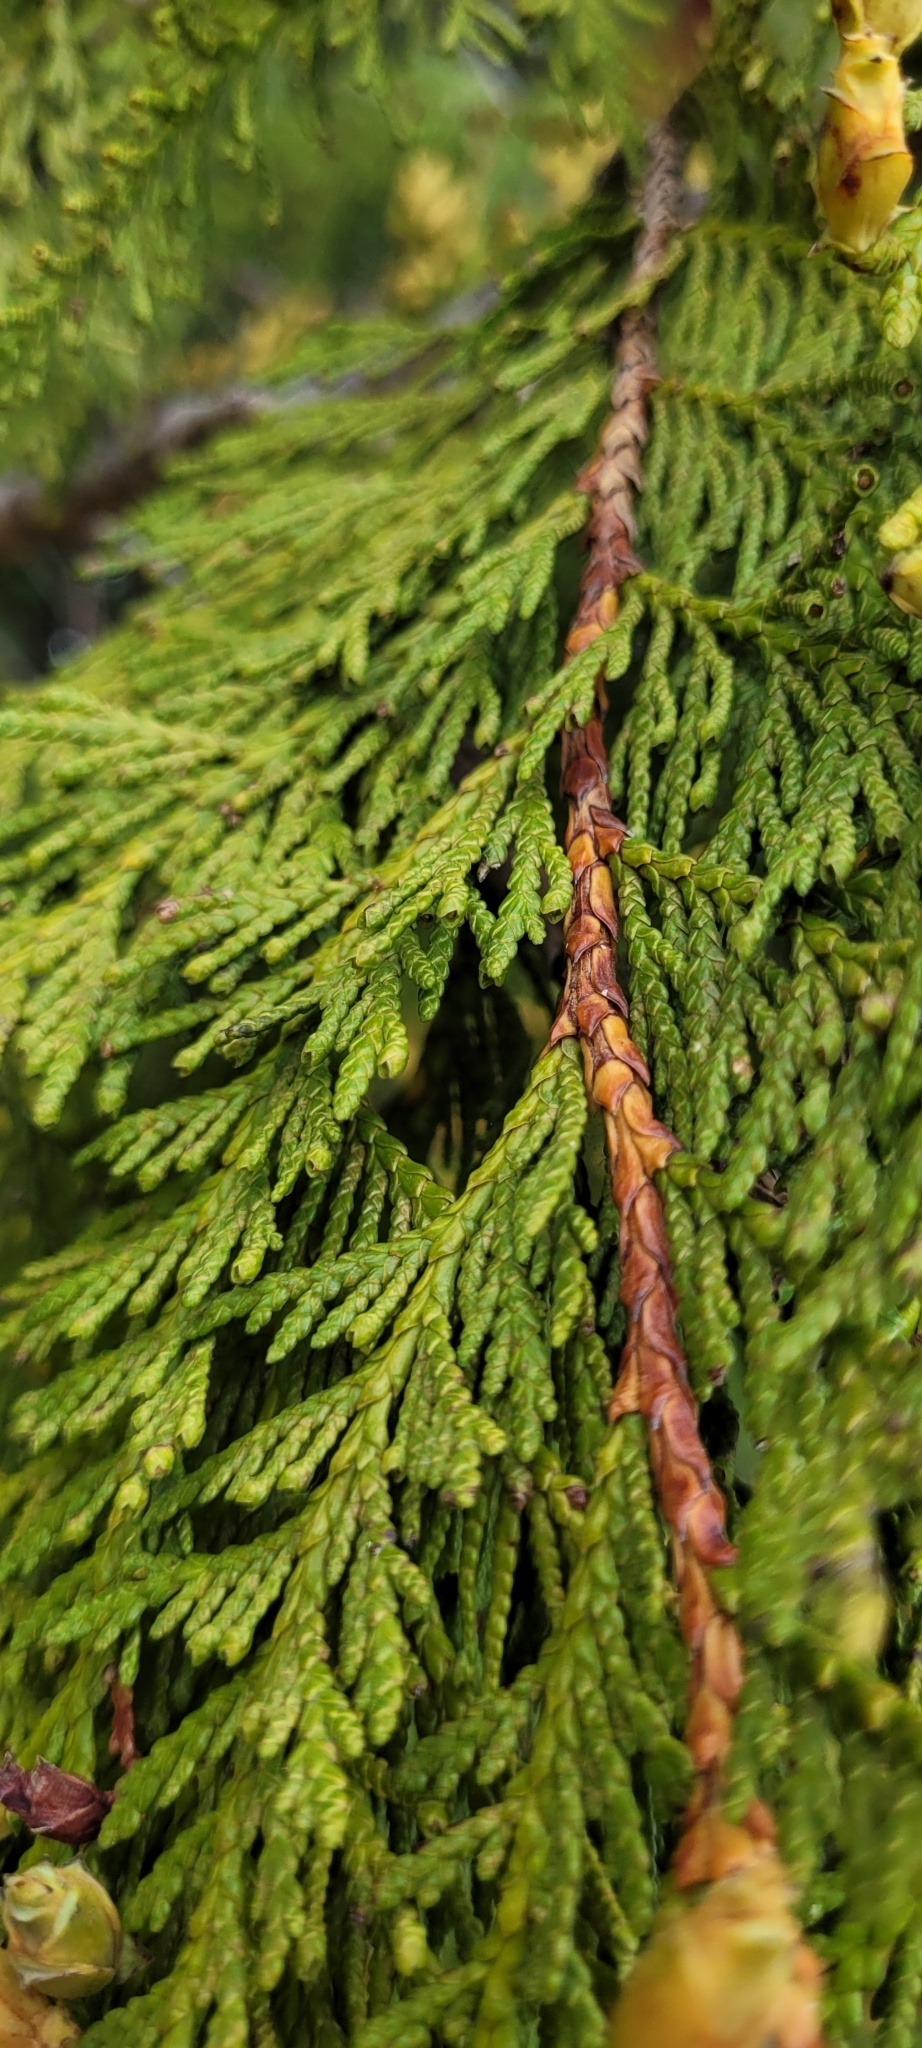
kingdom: Plantae
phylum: Tracheophyta
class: Pinopsida
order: Pinales
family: Cupressaceae
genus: Thuja
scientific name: Thuja plicata
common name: Western red-cedar
